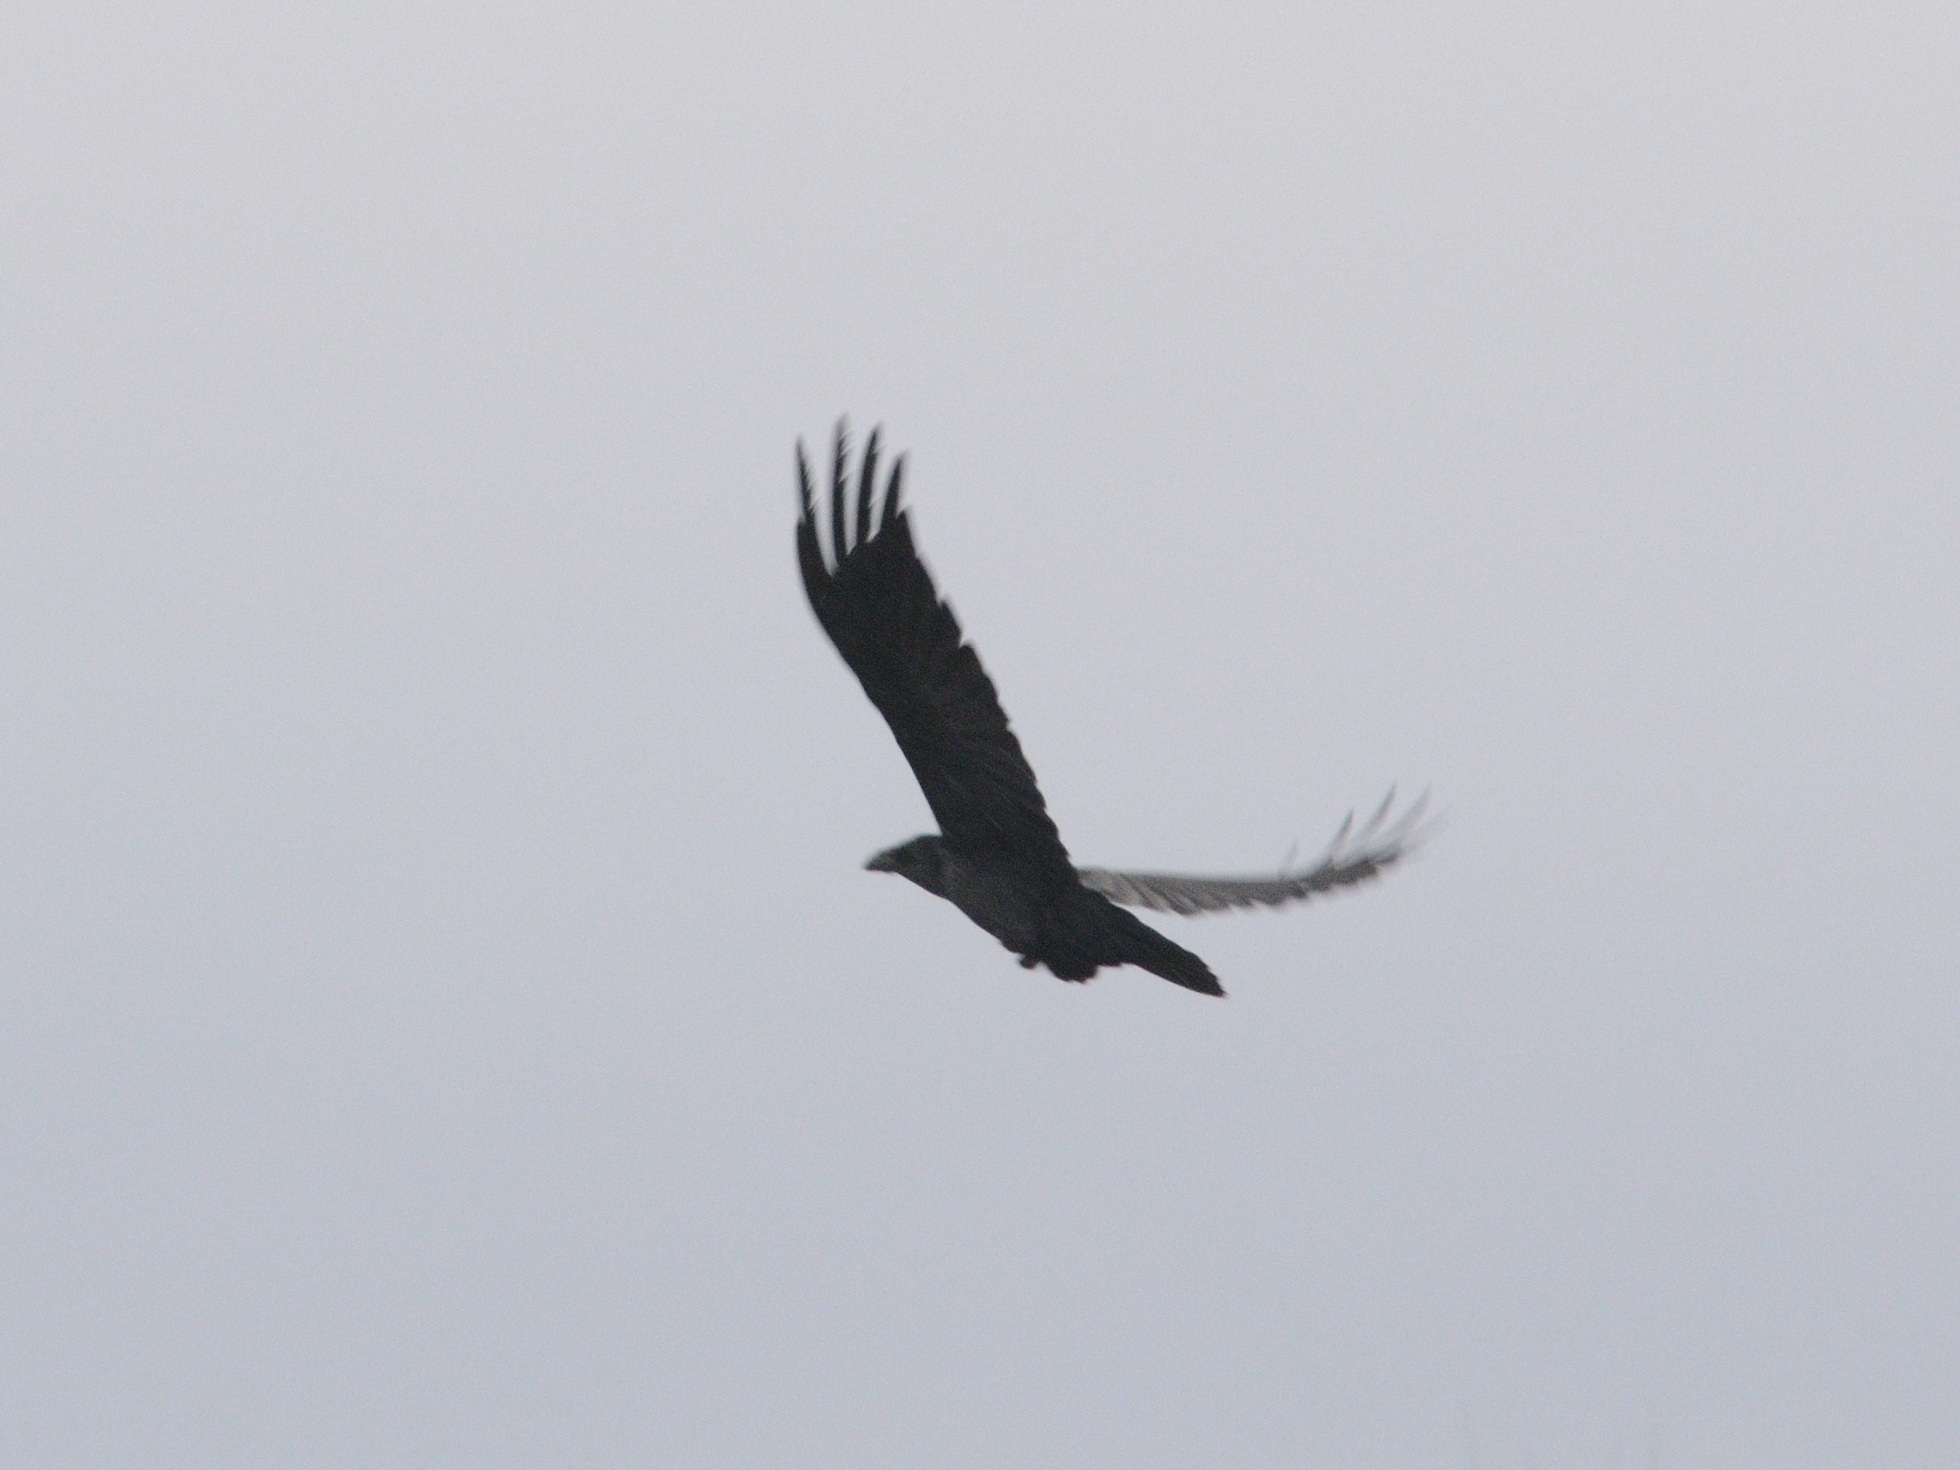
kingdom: Animalia
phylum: Chordata
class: Aves
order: Passeriformes
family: Corvidae
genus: Corvus
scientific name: Corvus corax
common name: Common raven
